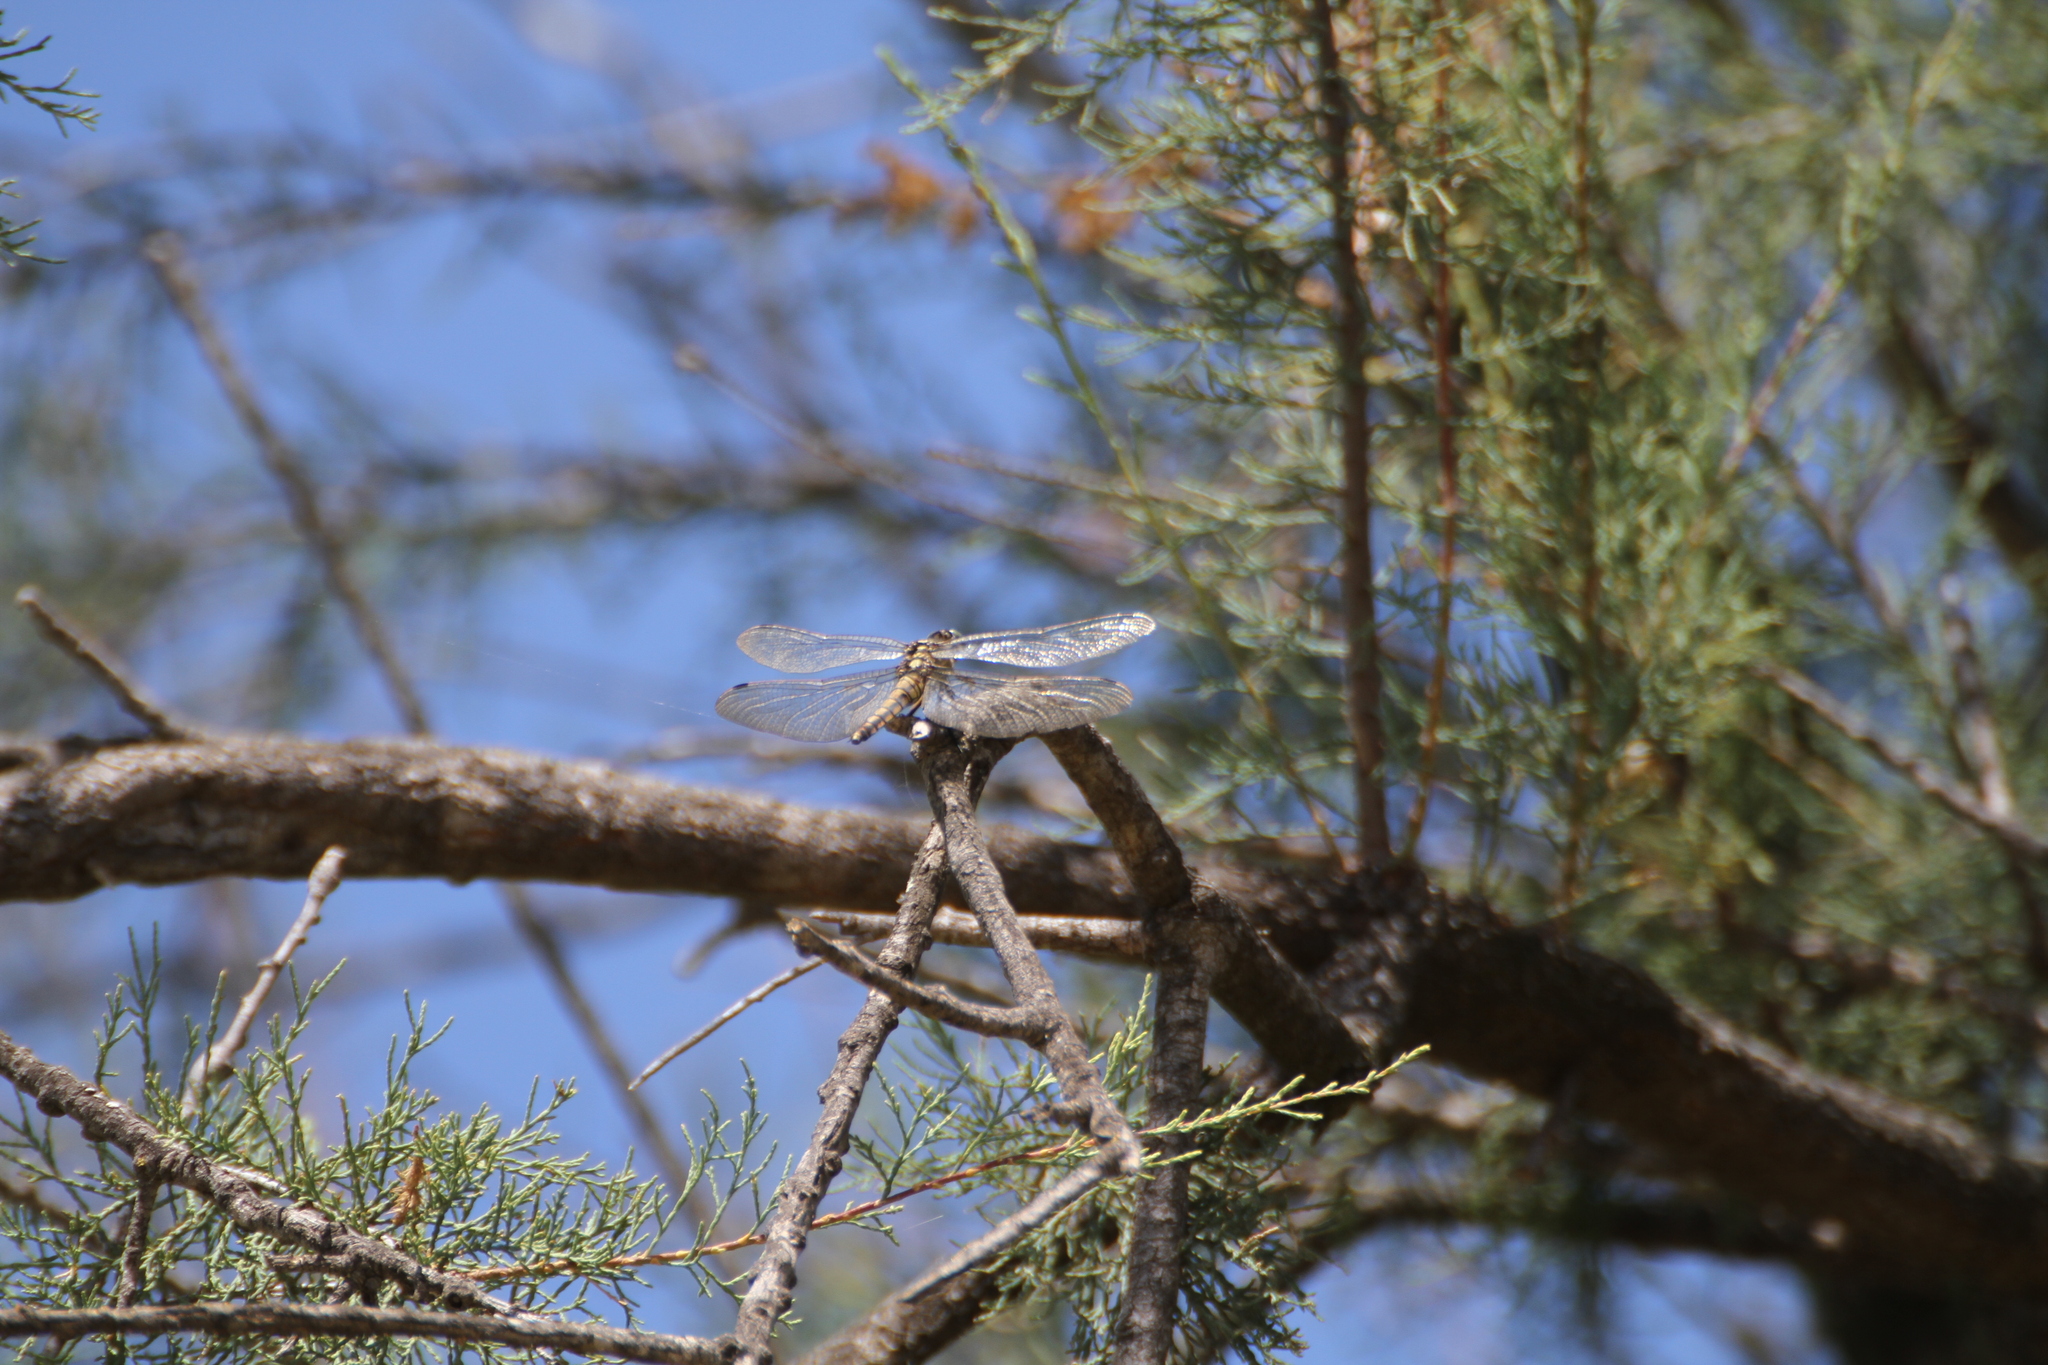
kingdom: Animalia
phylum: Arthropoda
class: Insecta
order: Odonata
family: Libellulidae
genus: Orthetrum
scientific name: Orthetrum cancellatum
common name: Black-tailed skimmer
